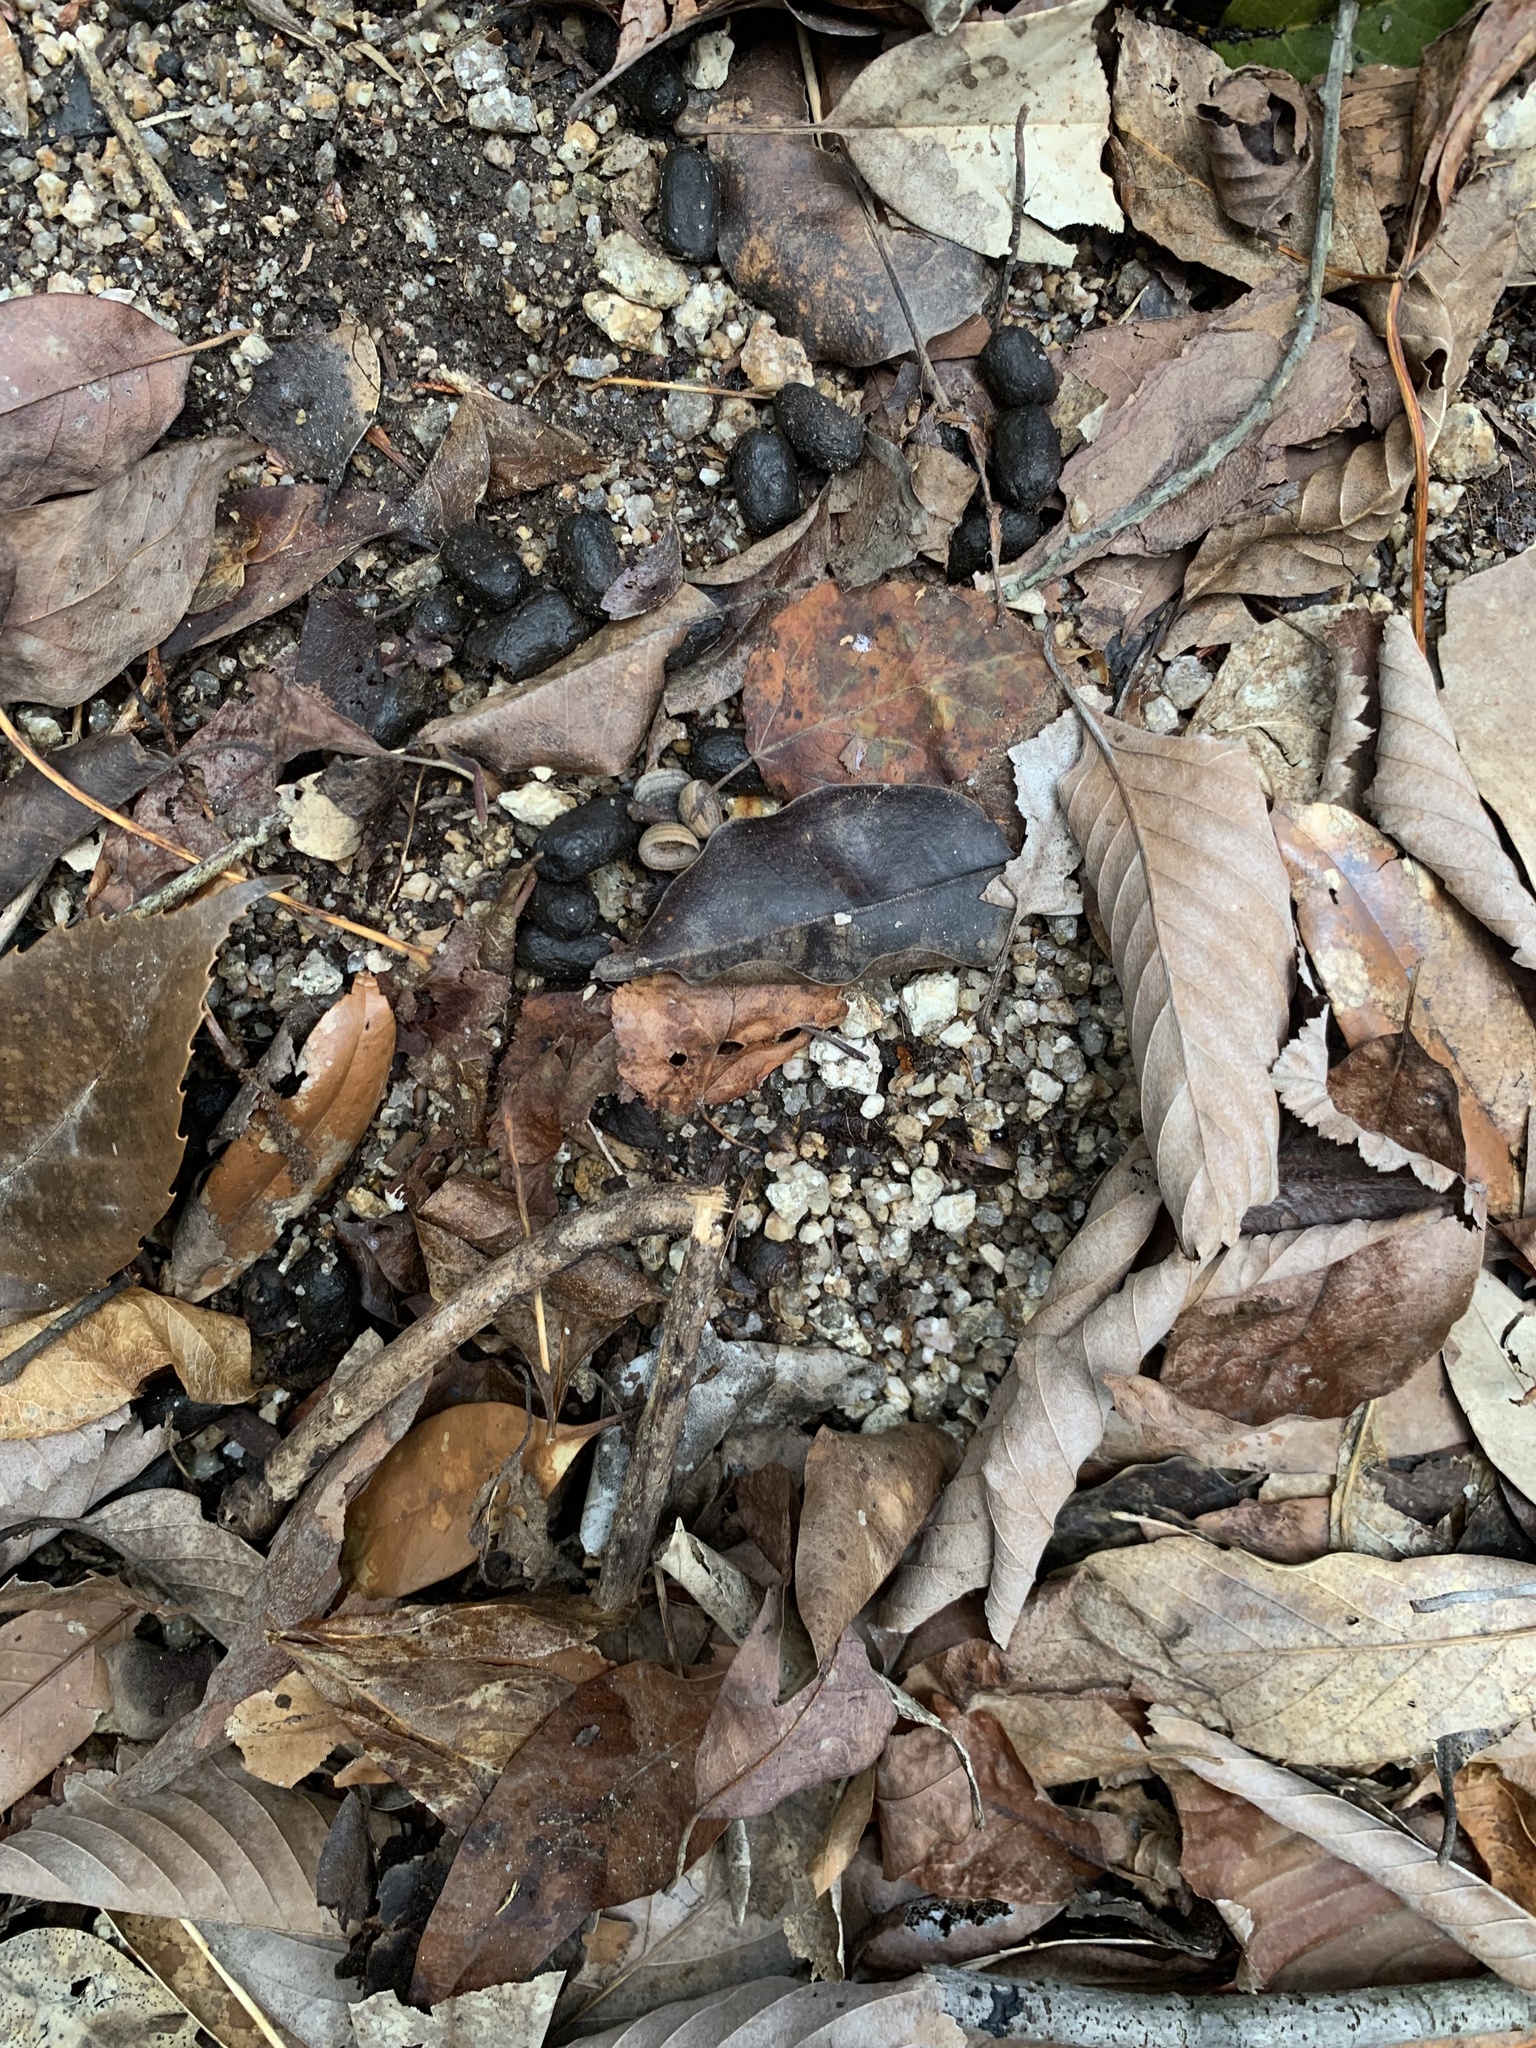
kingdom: Animalia
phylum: Chordata
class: Mammalia
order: Artiodactyla
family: Cervidae
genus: Cervus
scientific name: Cervus nippon
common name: Sika deer
